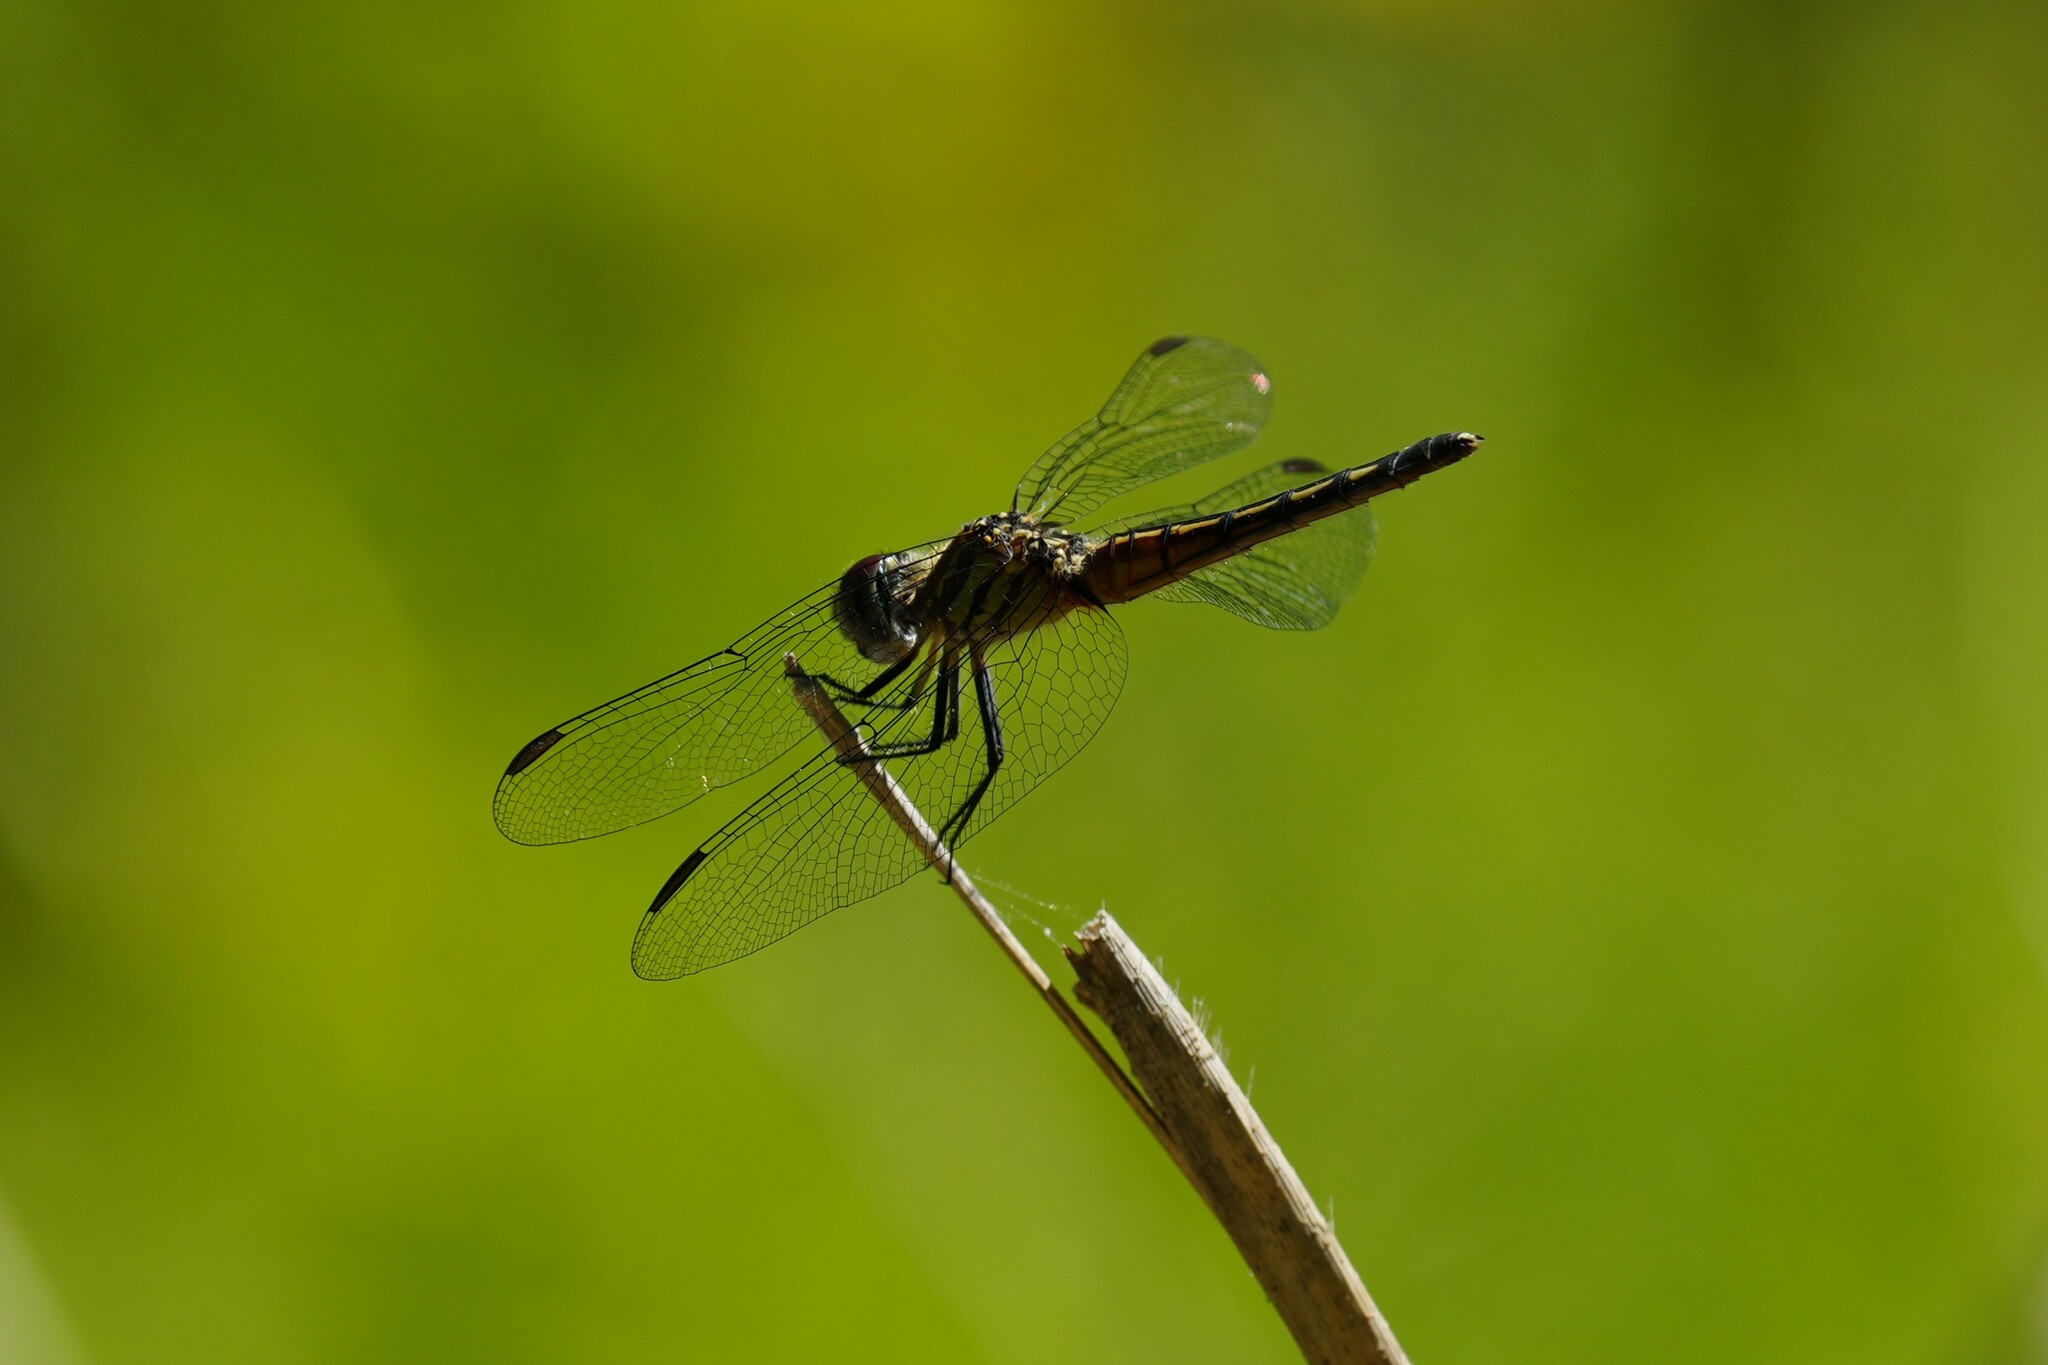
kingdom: Animalia
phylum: Arthropoda
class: Insecta
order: Odonata
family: Libellulidae
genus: Pachydiplax
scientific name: Pachydiplax longipennis
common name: Blue dasher
